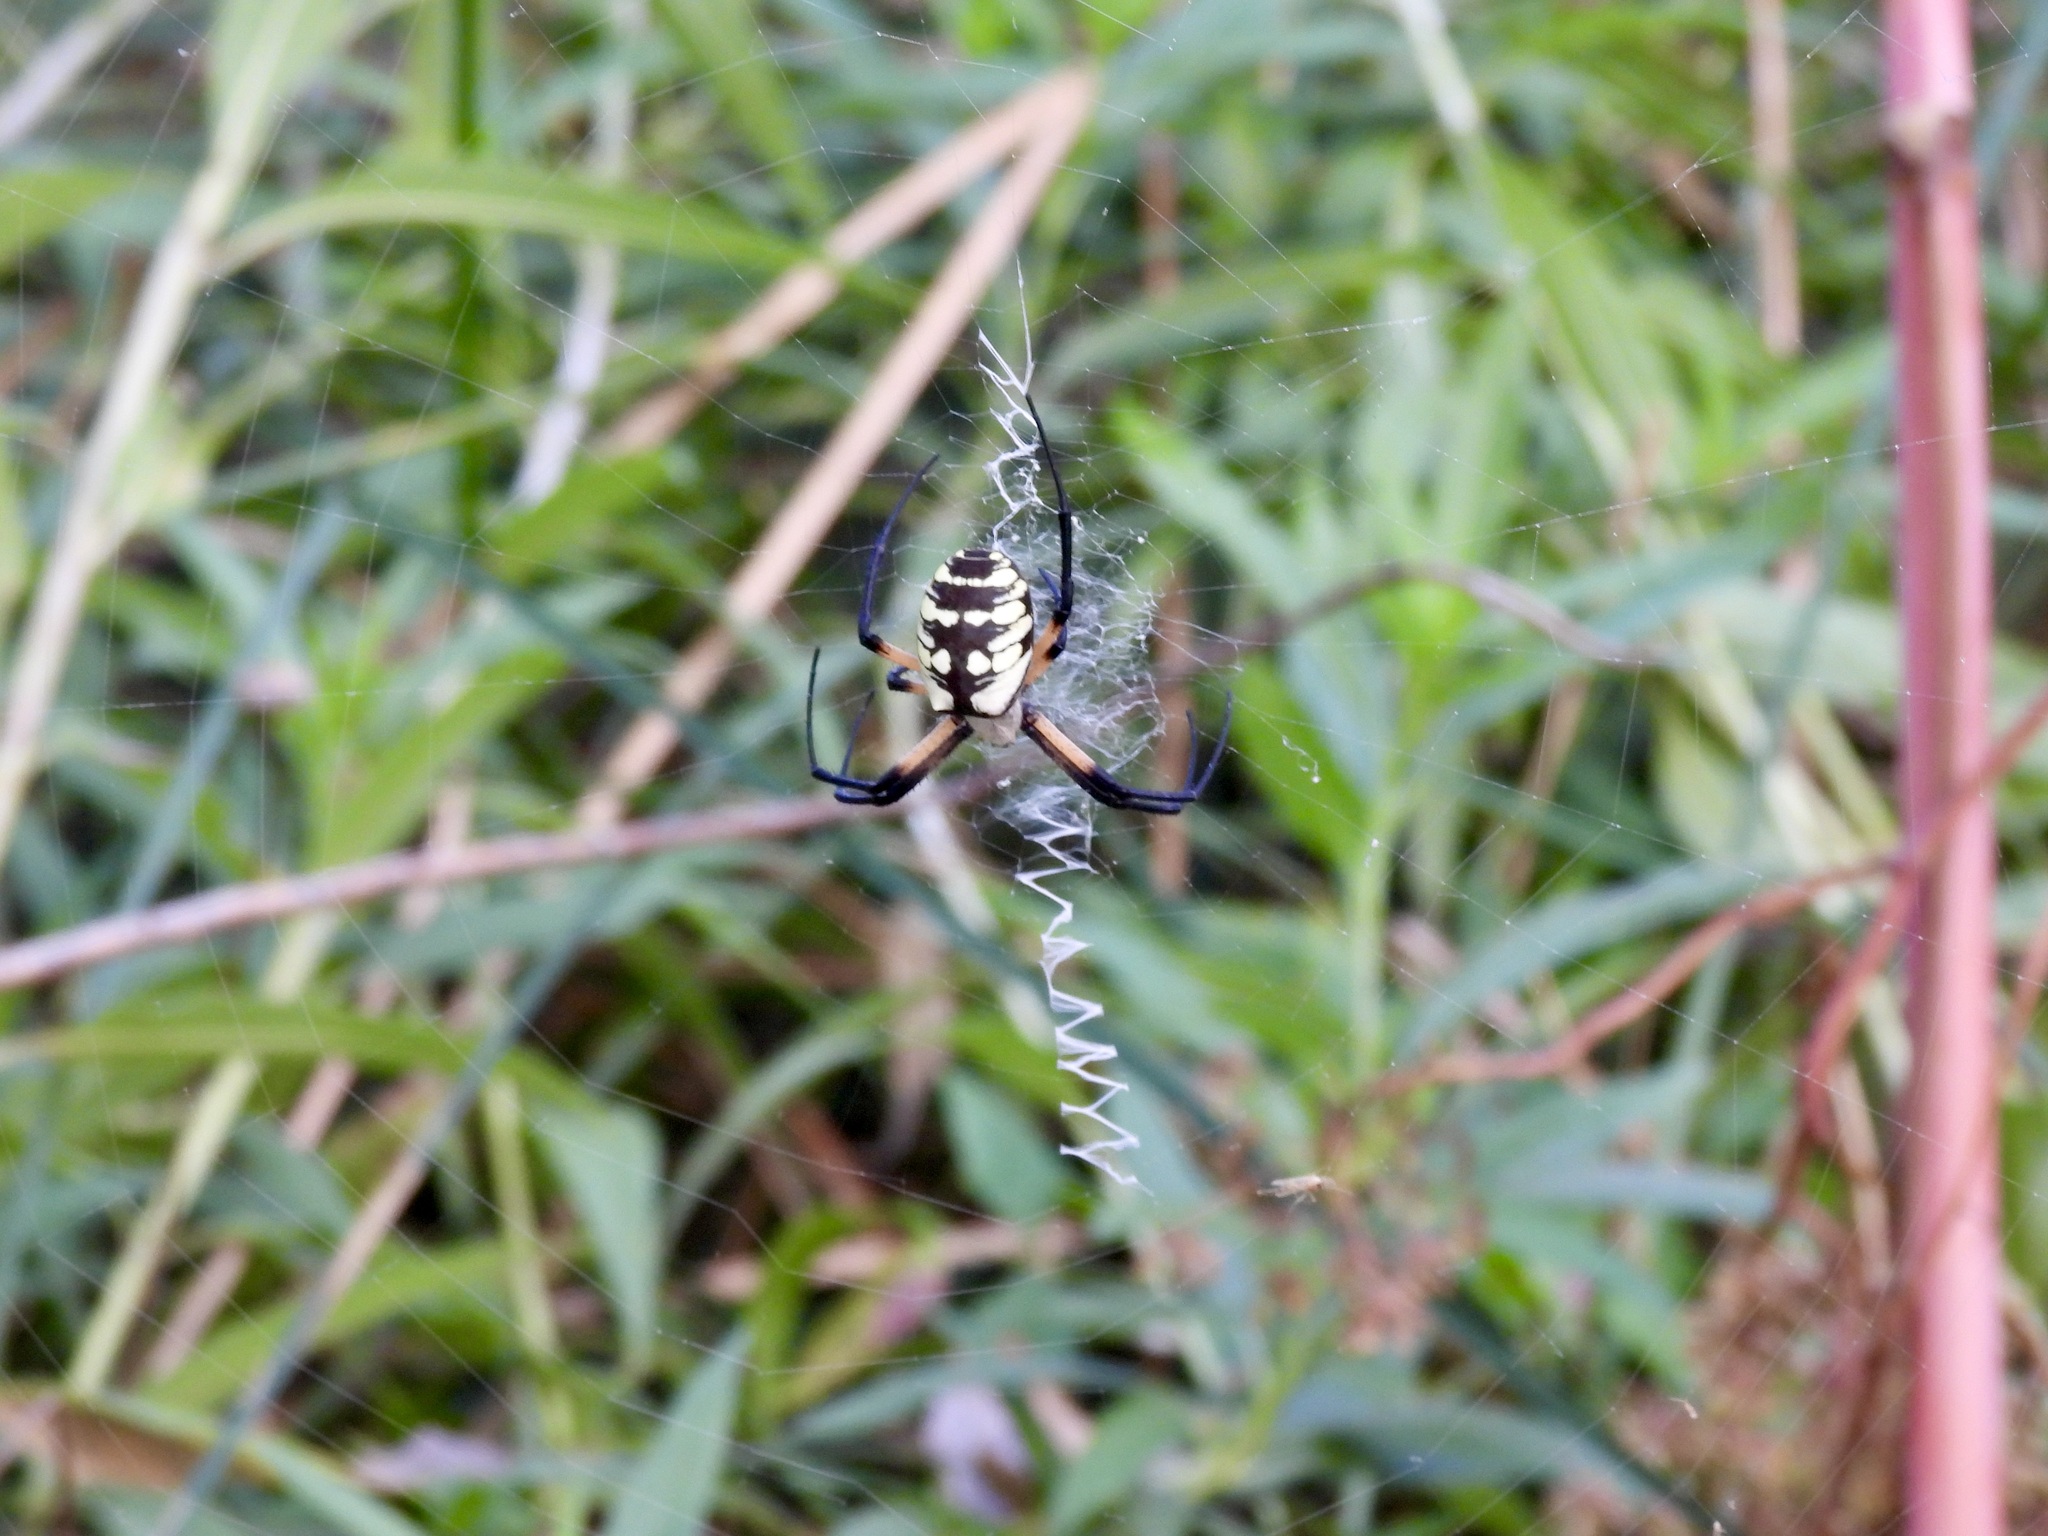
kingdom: Animalia
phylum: Arthropoda
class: Arachnida
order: Araneae
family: Araneidae
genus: Argiope
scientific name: Argiope aurantia
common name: Orb weavers
